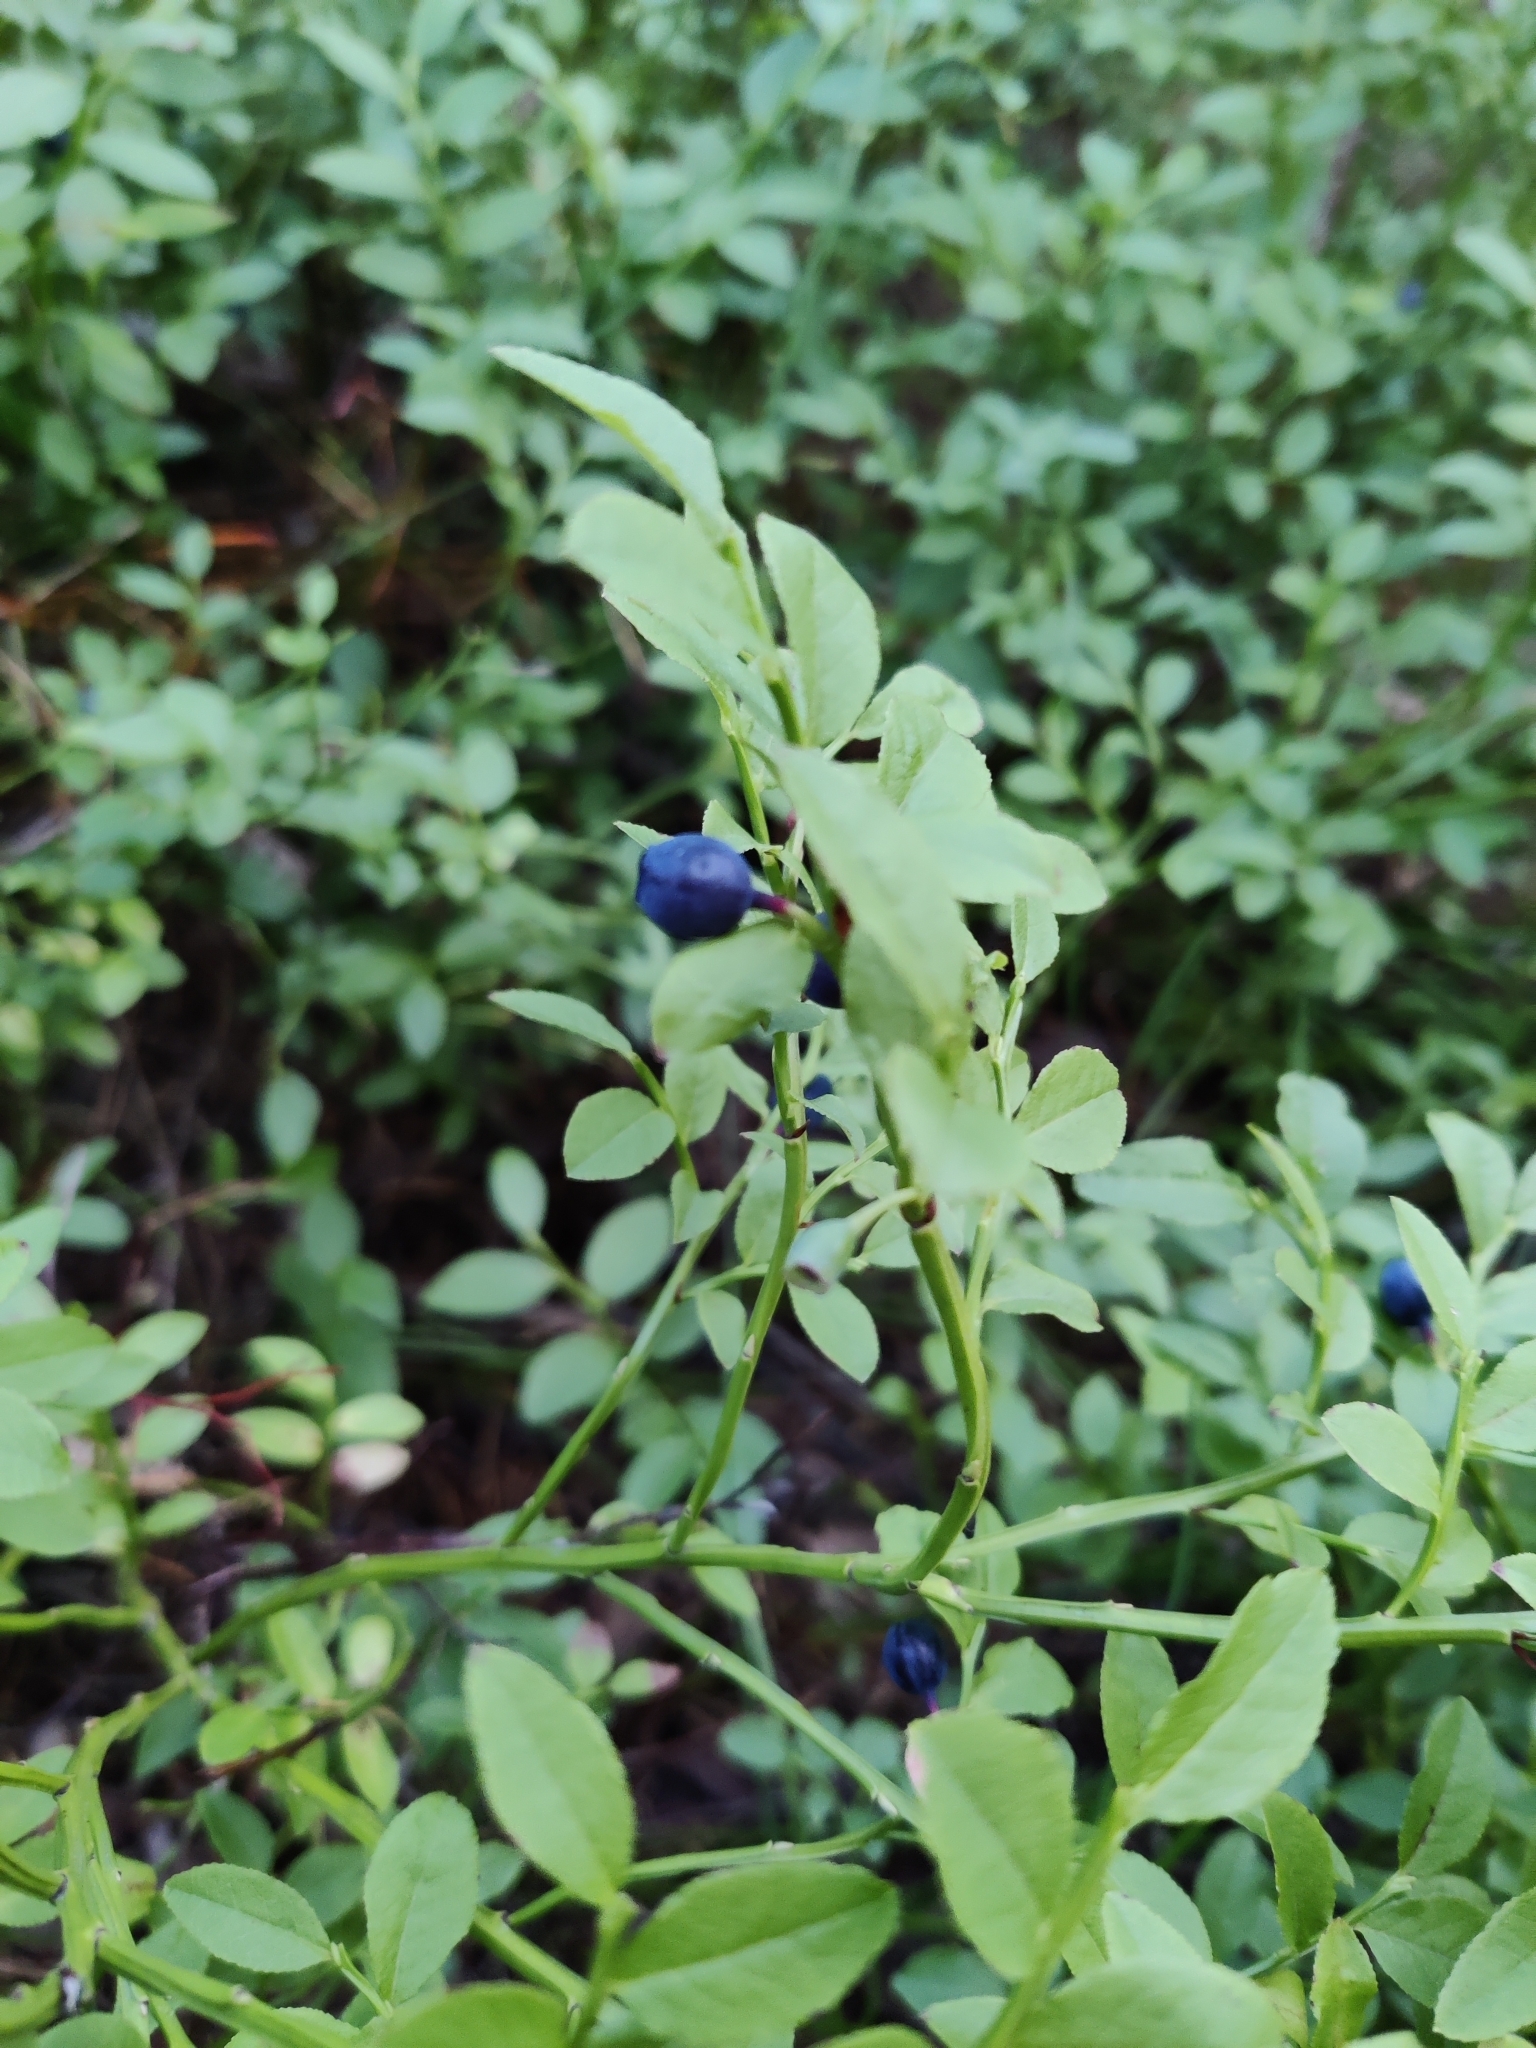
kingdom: Plantae
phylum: Tracheophyta
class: Magnoliopsida
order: Ericales
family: Ericaceae
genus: Vaccinium
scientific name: Vaccinium myrtillus
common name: Bilberry
